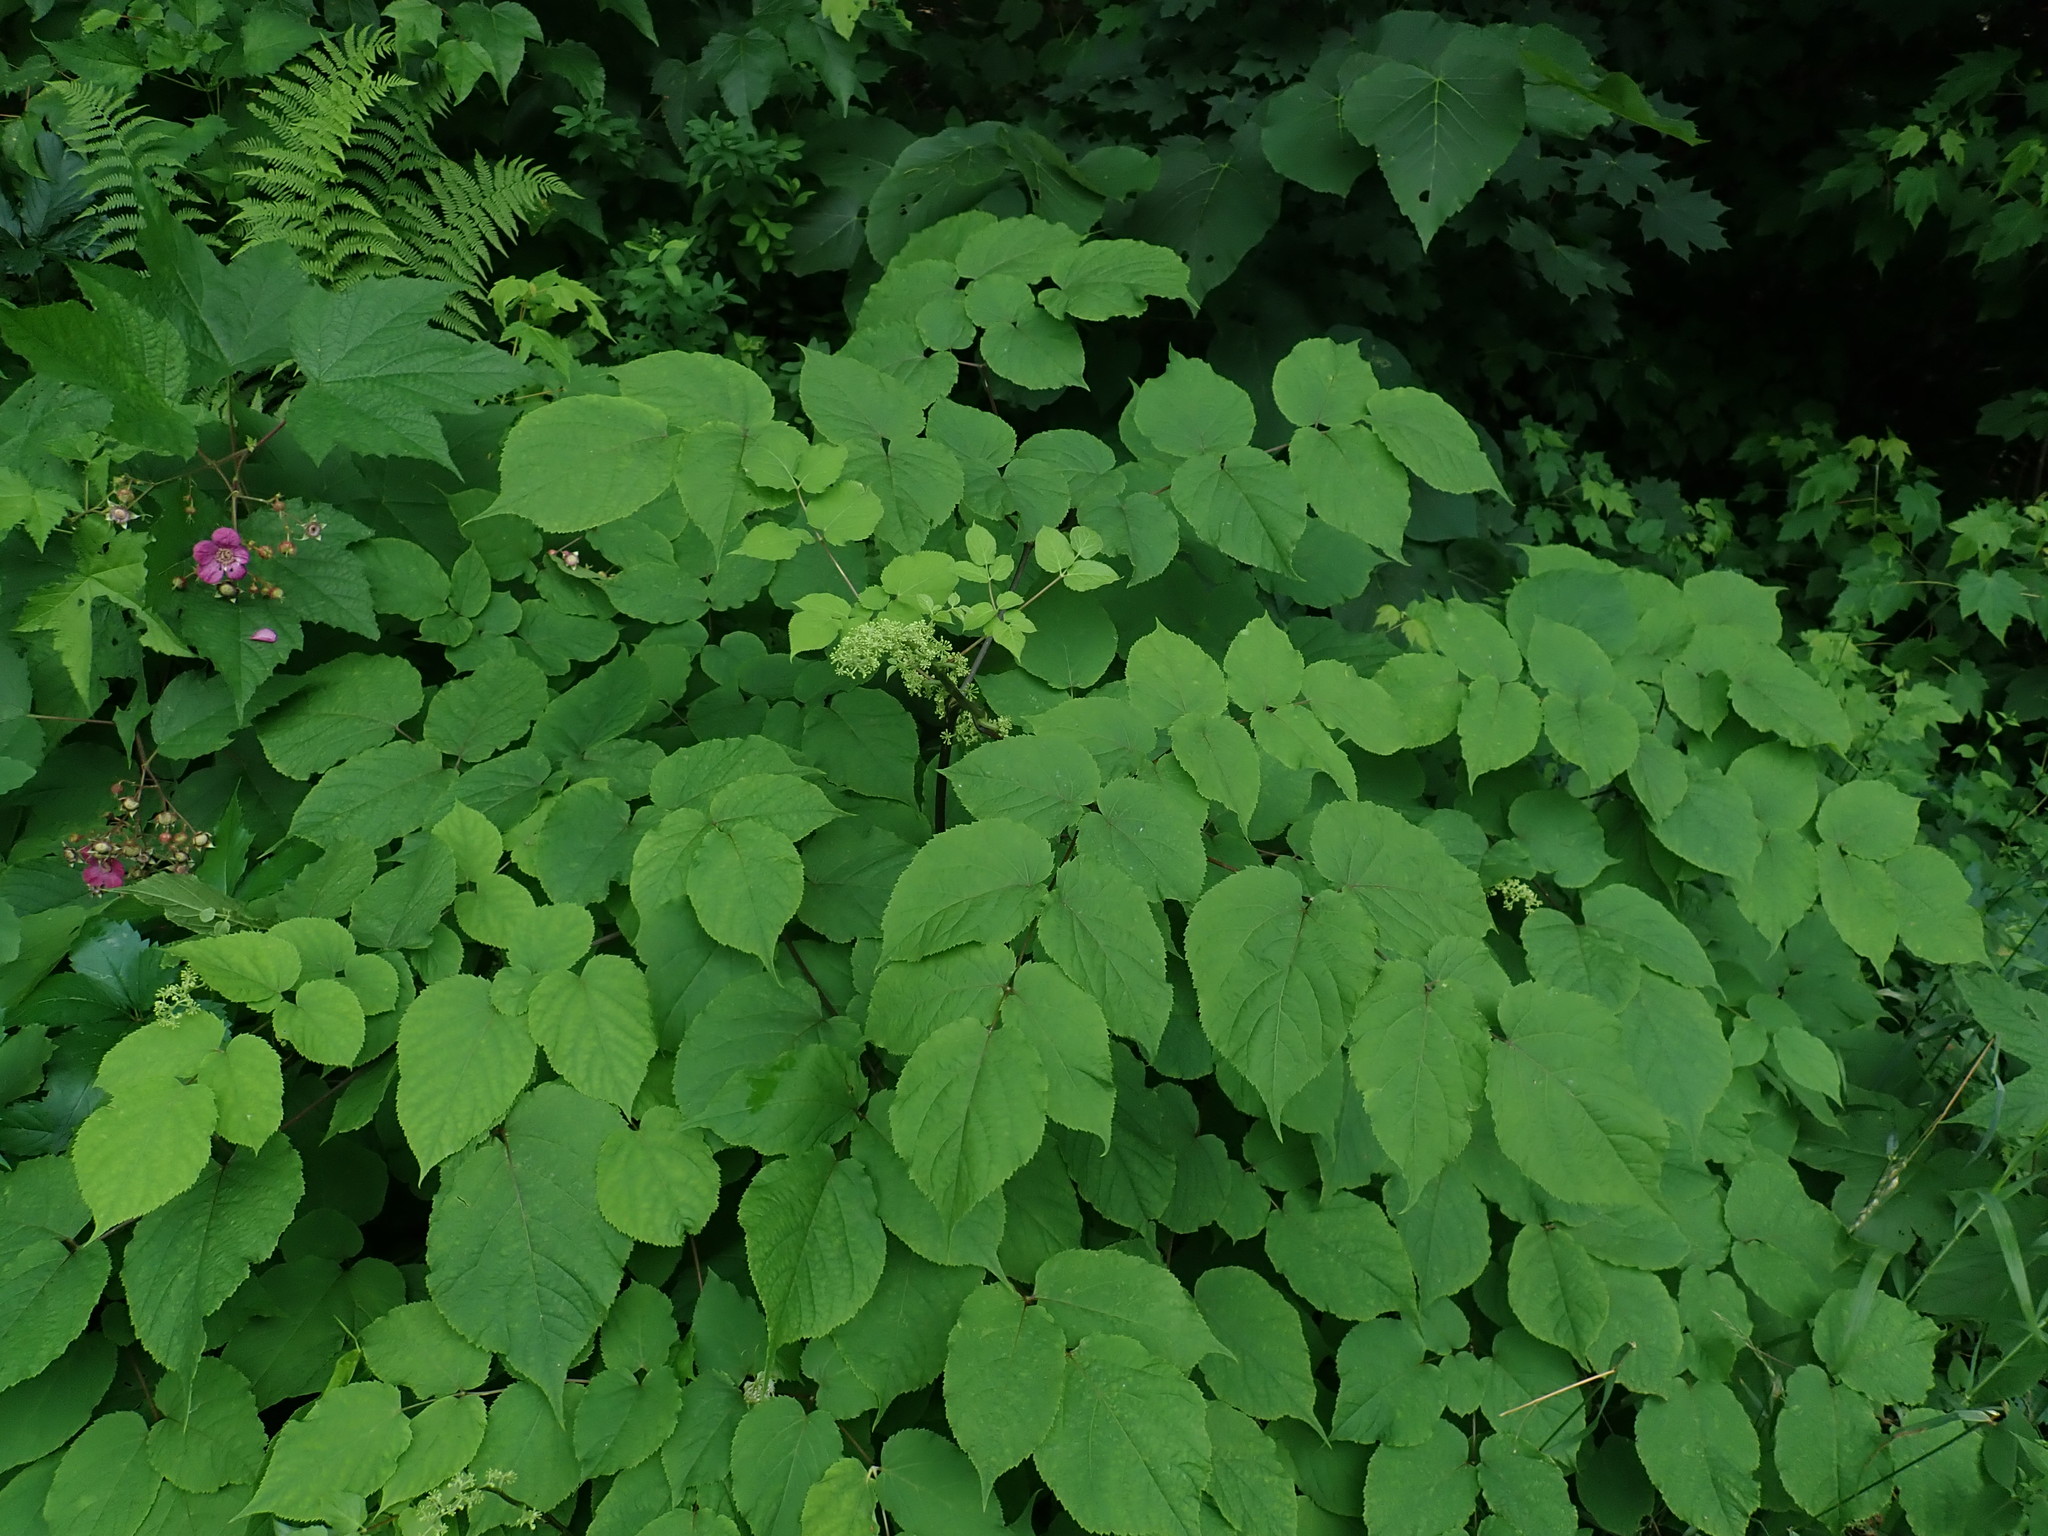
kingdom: Plantae
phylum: Tracheophyta
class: Magnoliopsida
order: Apiales
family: Araliaceae
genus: Aralia
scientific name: Aralia racemosa
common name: American-spikenard
